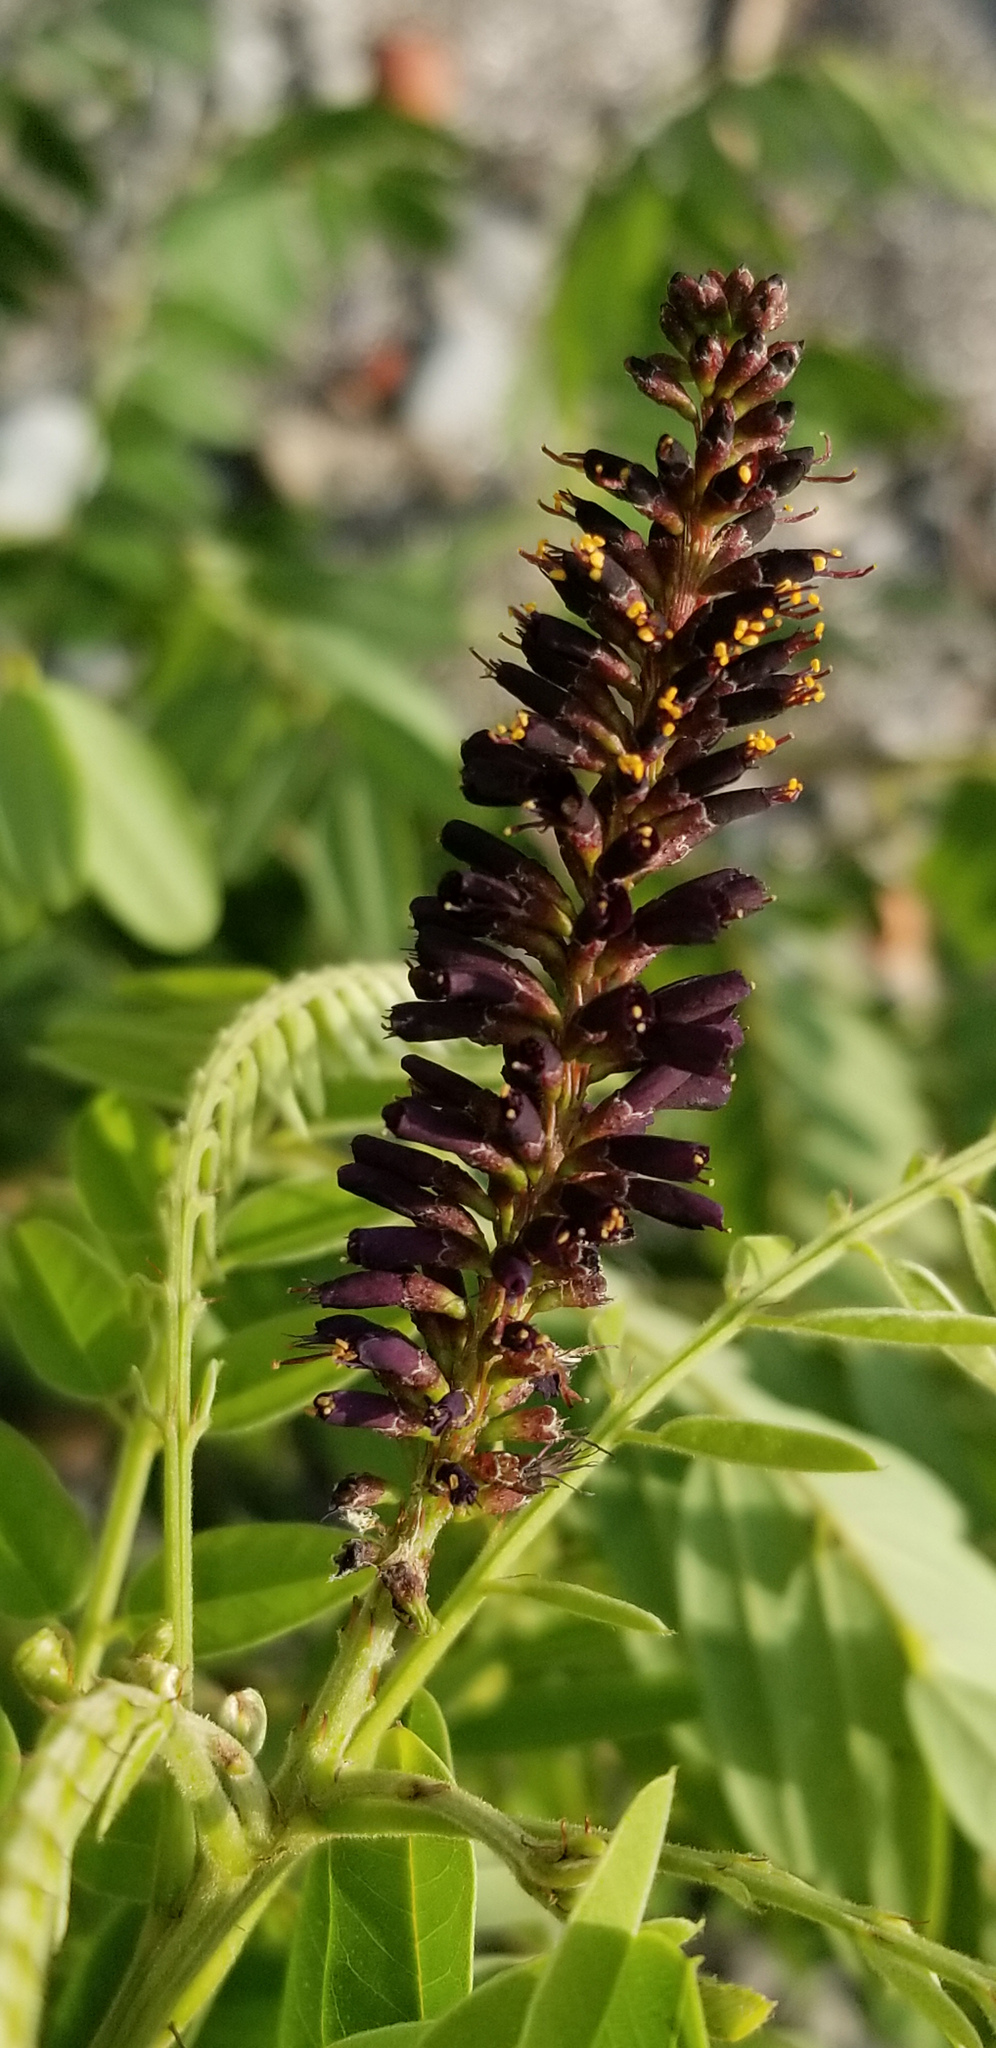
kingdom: Plantae
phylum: Tracheophyta
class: Magnoliopsida
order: Fabales
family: Fabaceae
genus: Amorpha
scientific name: Amorpha fruticosa
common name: False indigo
